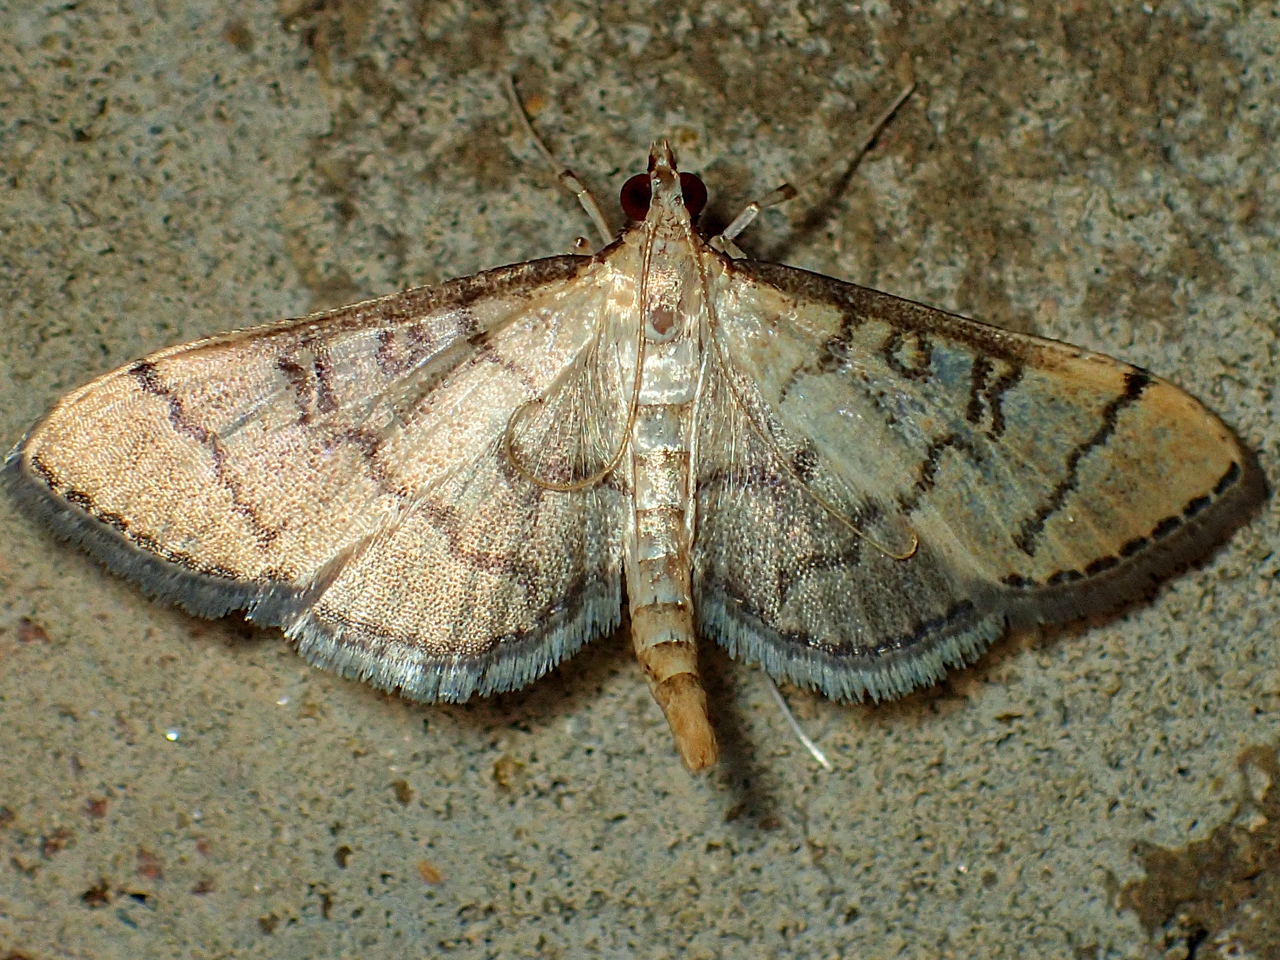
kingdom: Animalia
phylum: Arthropoda
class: Insecta
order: Lepidoptera
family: Crambidae
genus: Lamprosema
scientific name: Lamprosema Blepharomastix ranalis
